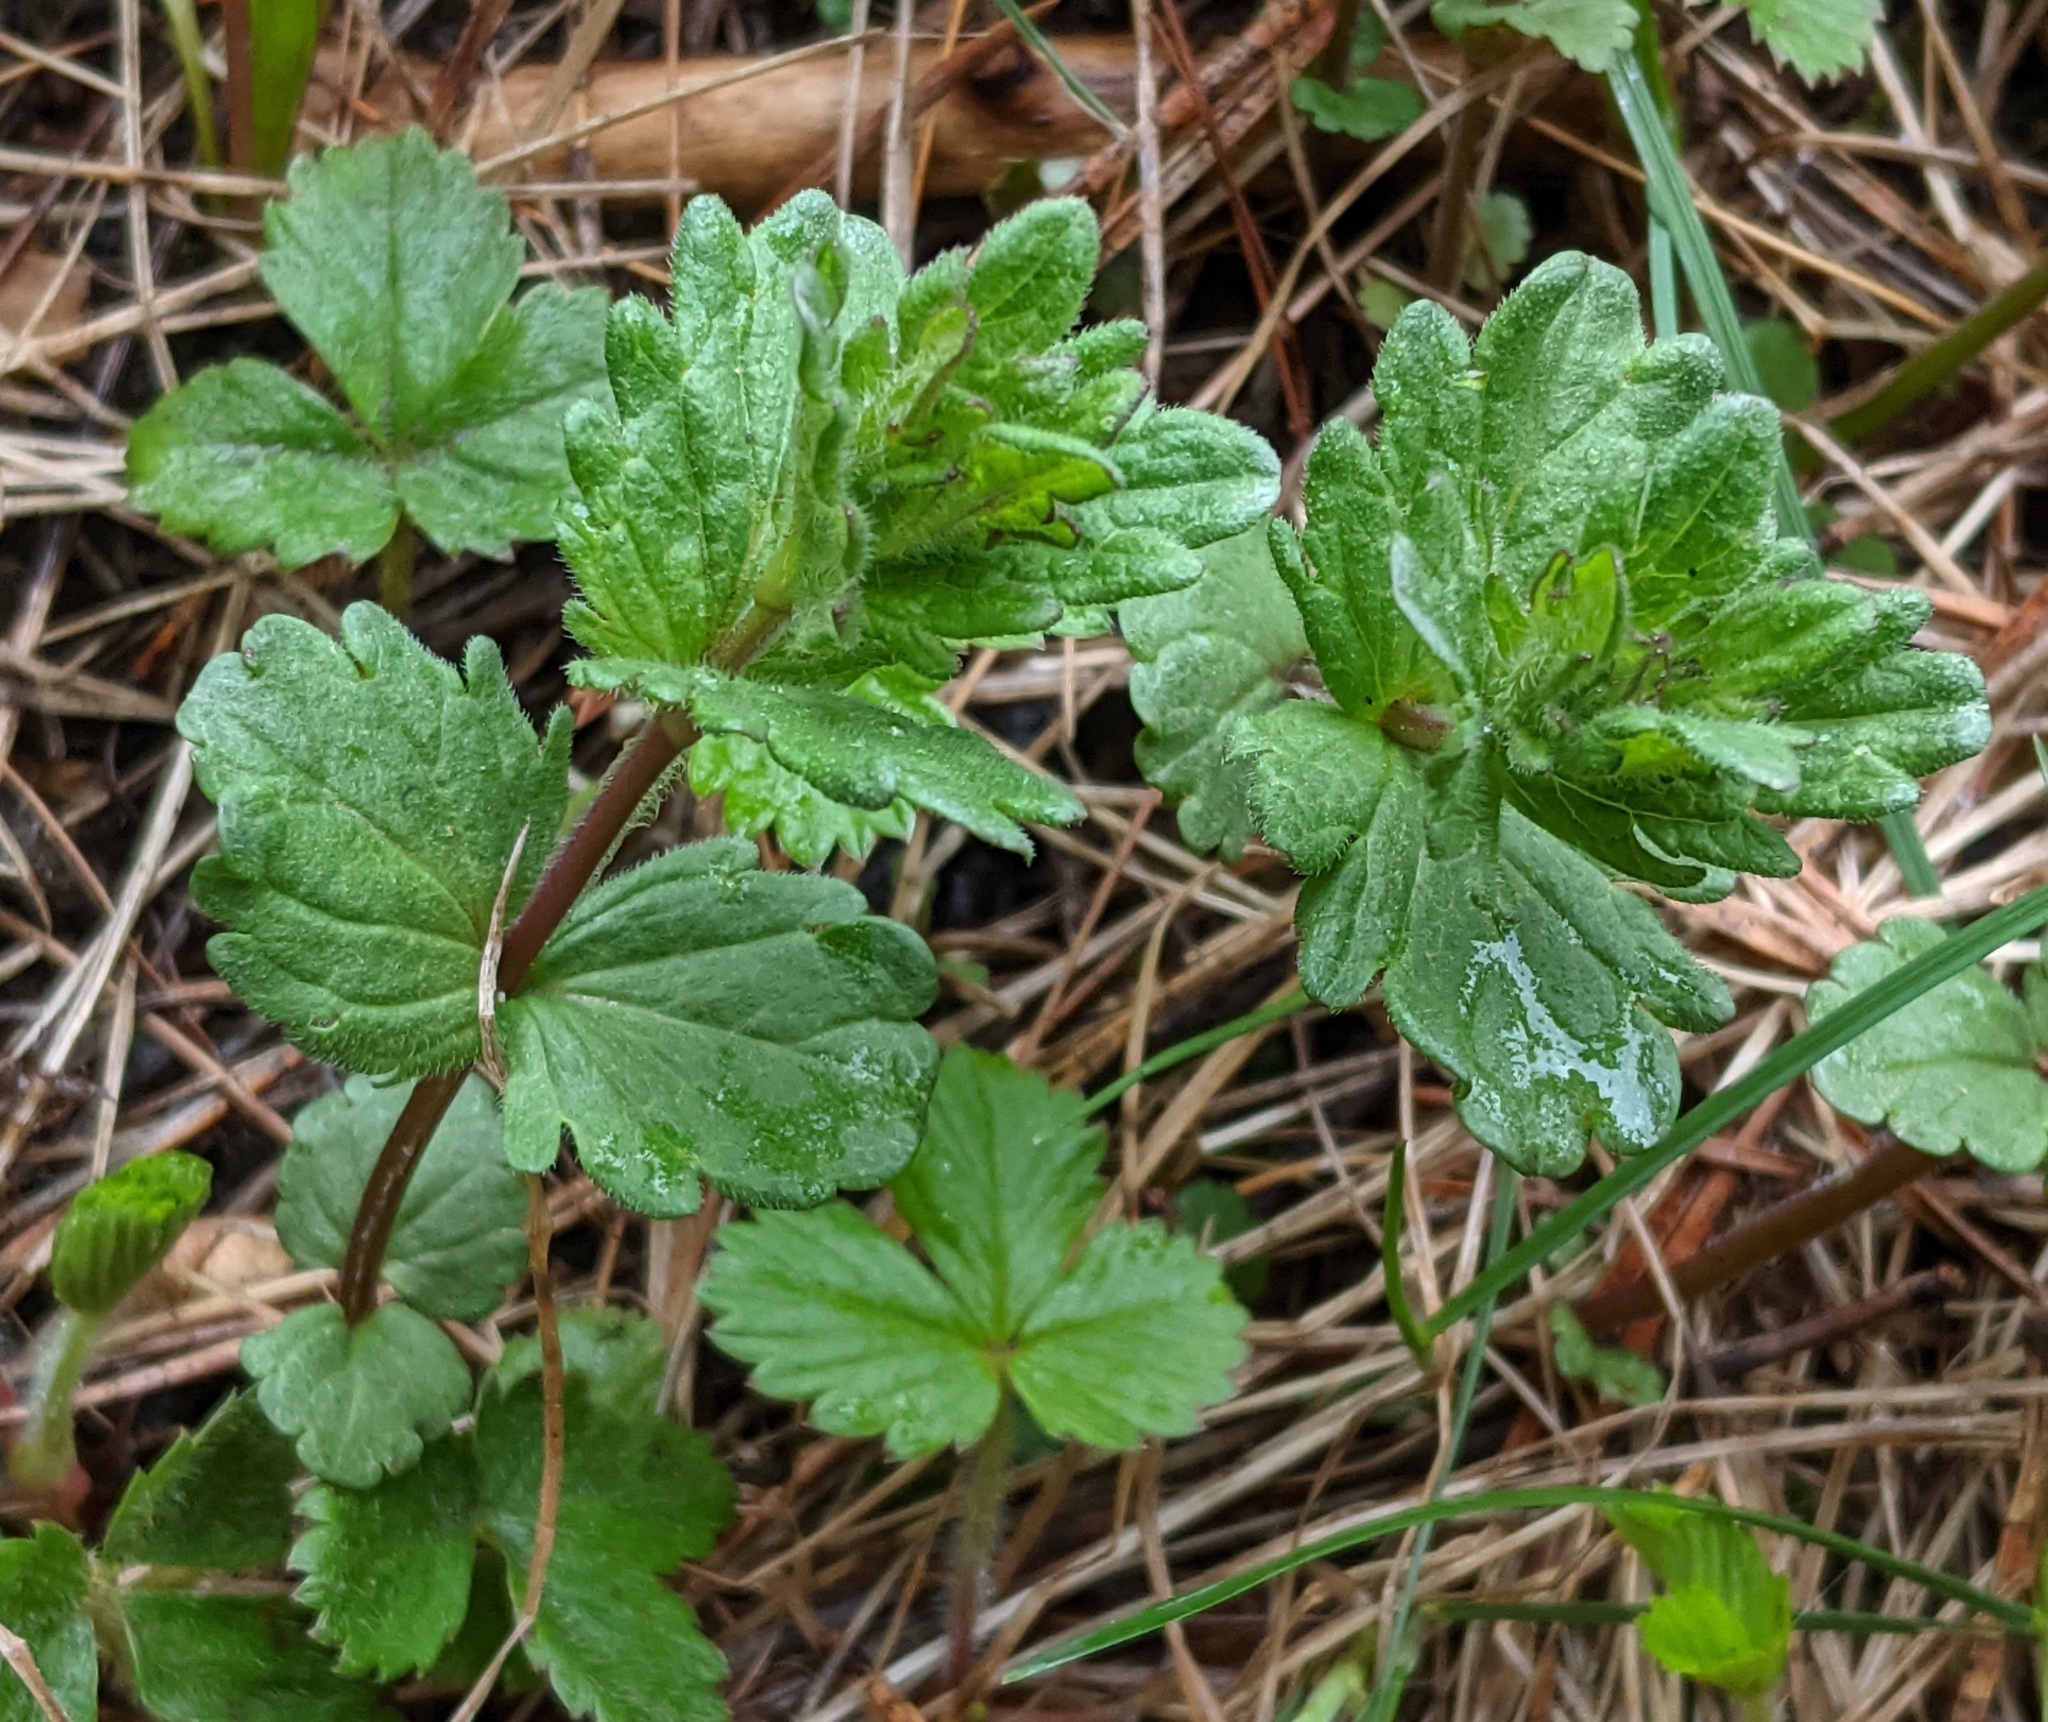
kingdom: Plantae
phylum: Tracheophyta
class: Magnoliopsida
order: Lamiales
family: Plantaginaceae
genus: Veronica
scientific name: Veronica chamaedrys
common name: Germander speedwell
